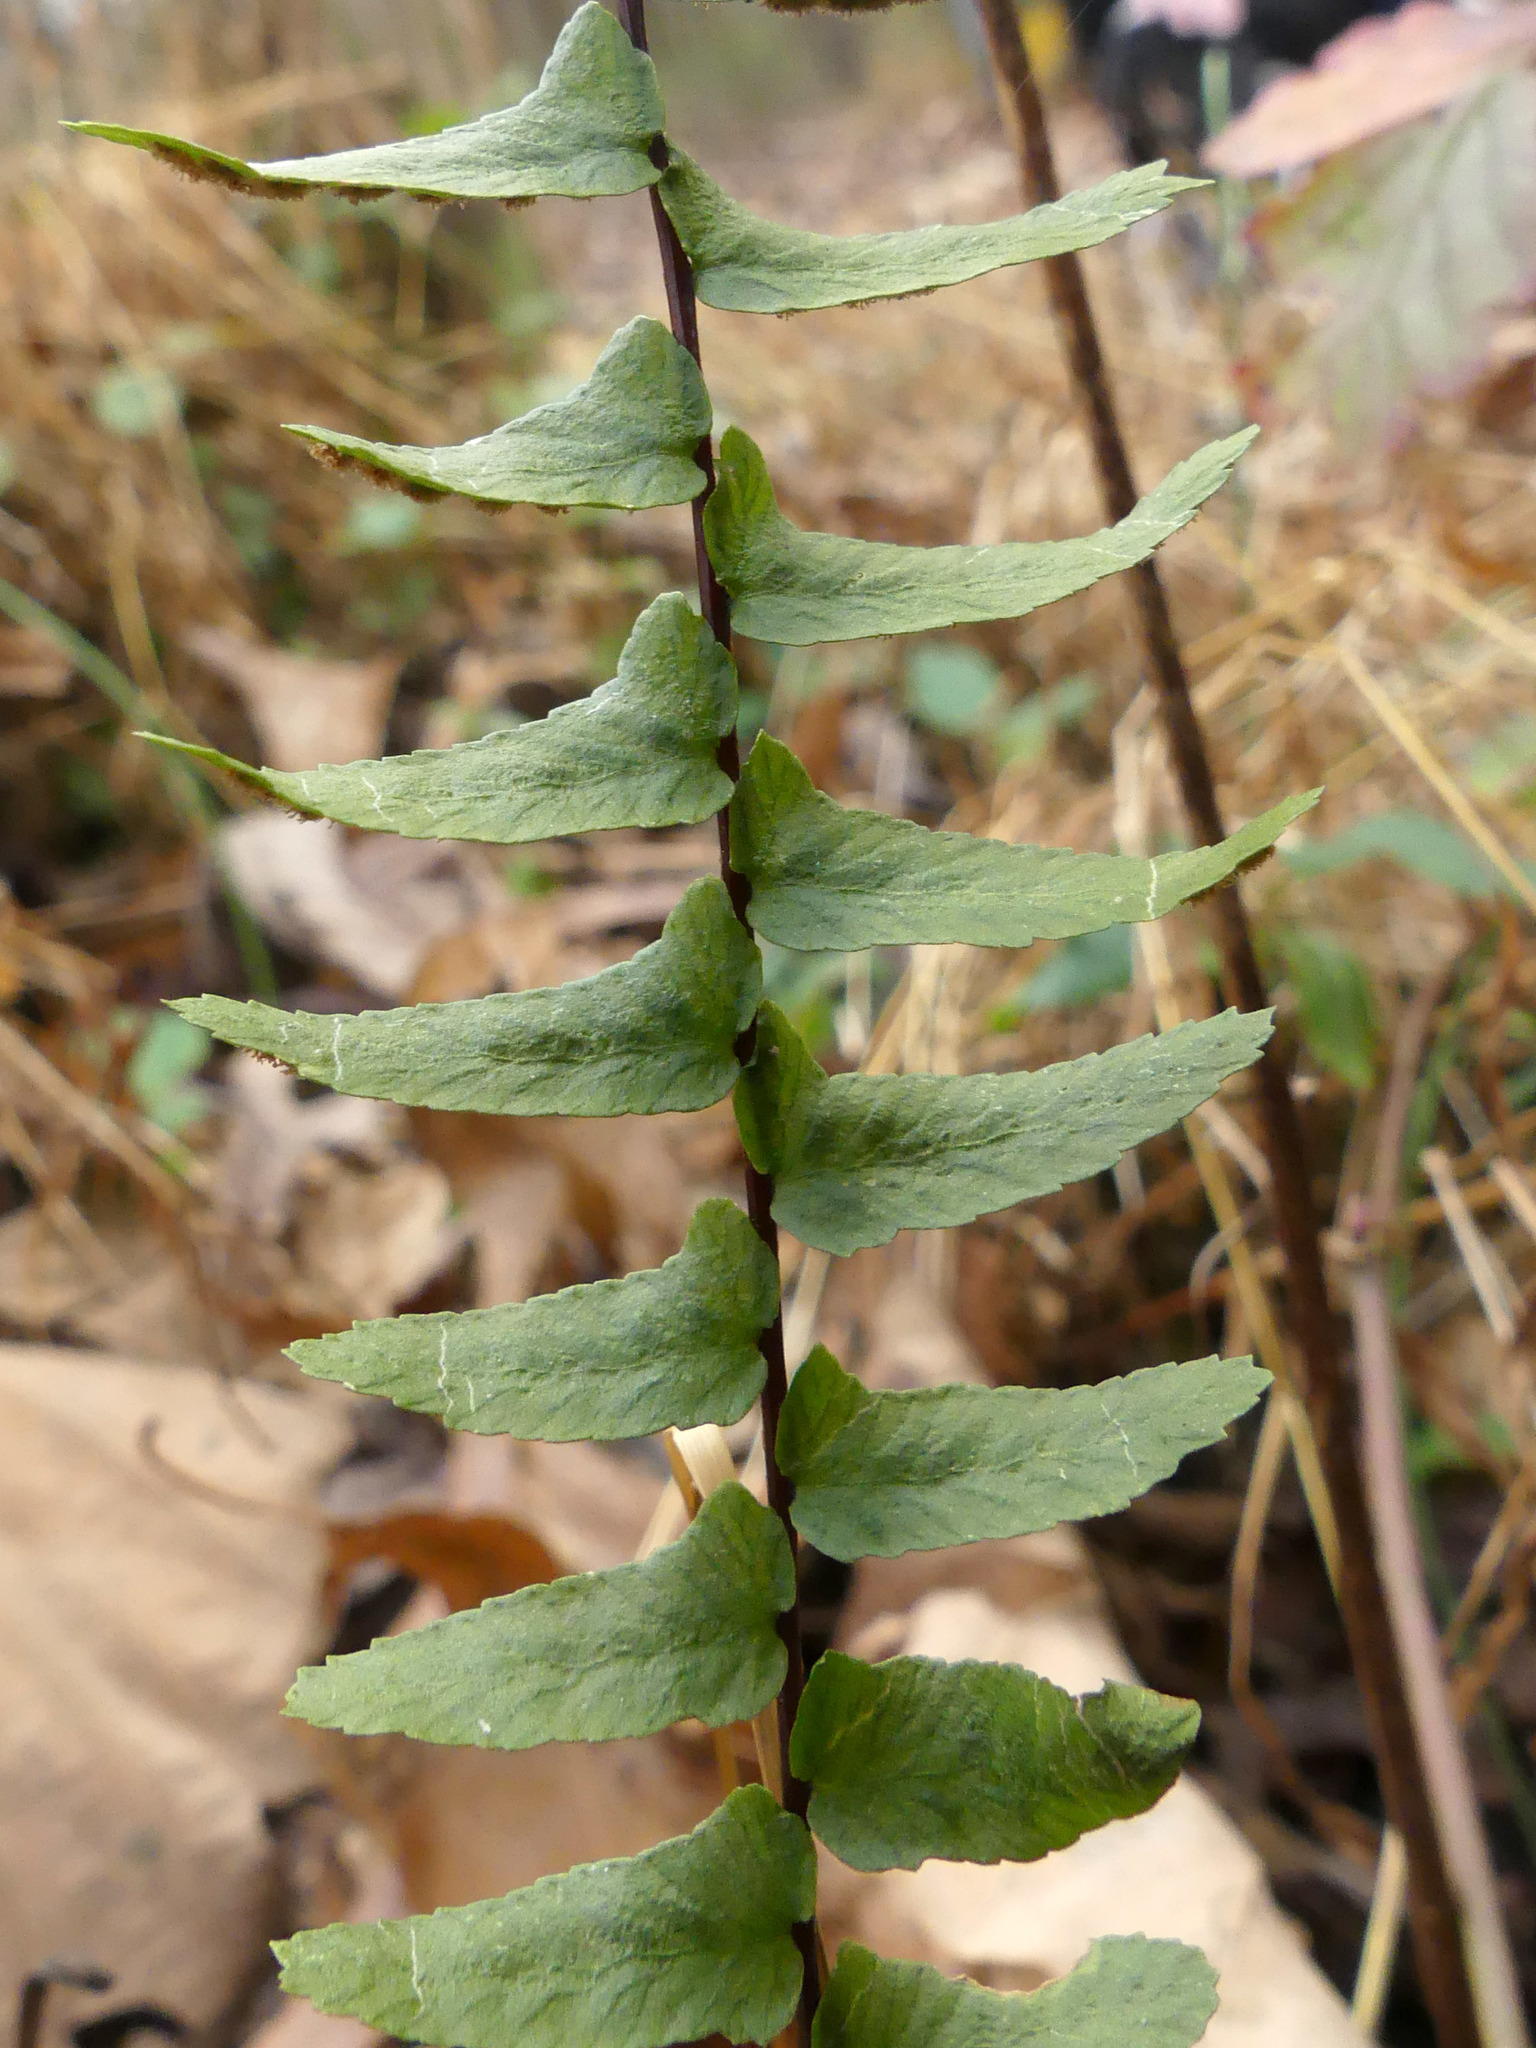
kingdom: Plantae
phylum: Tracheophyta
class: Polypodiopsida
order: Polypodiales
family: Aspleniaceae
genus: Asplenium
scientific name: Asplenium platyneuron
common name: Ebony spleenwort
